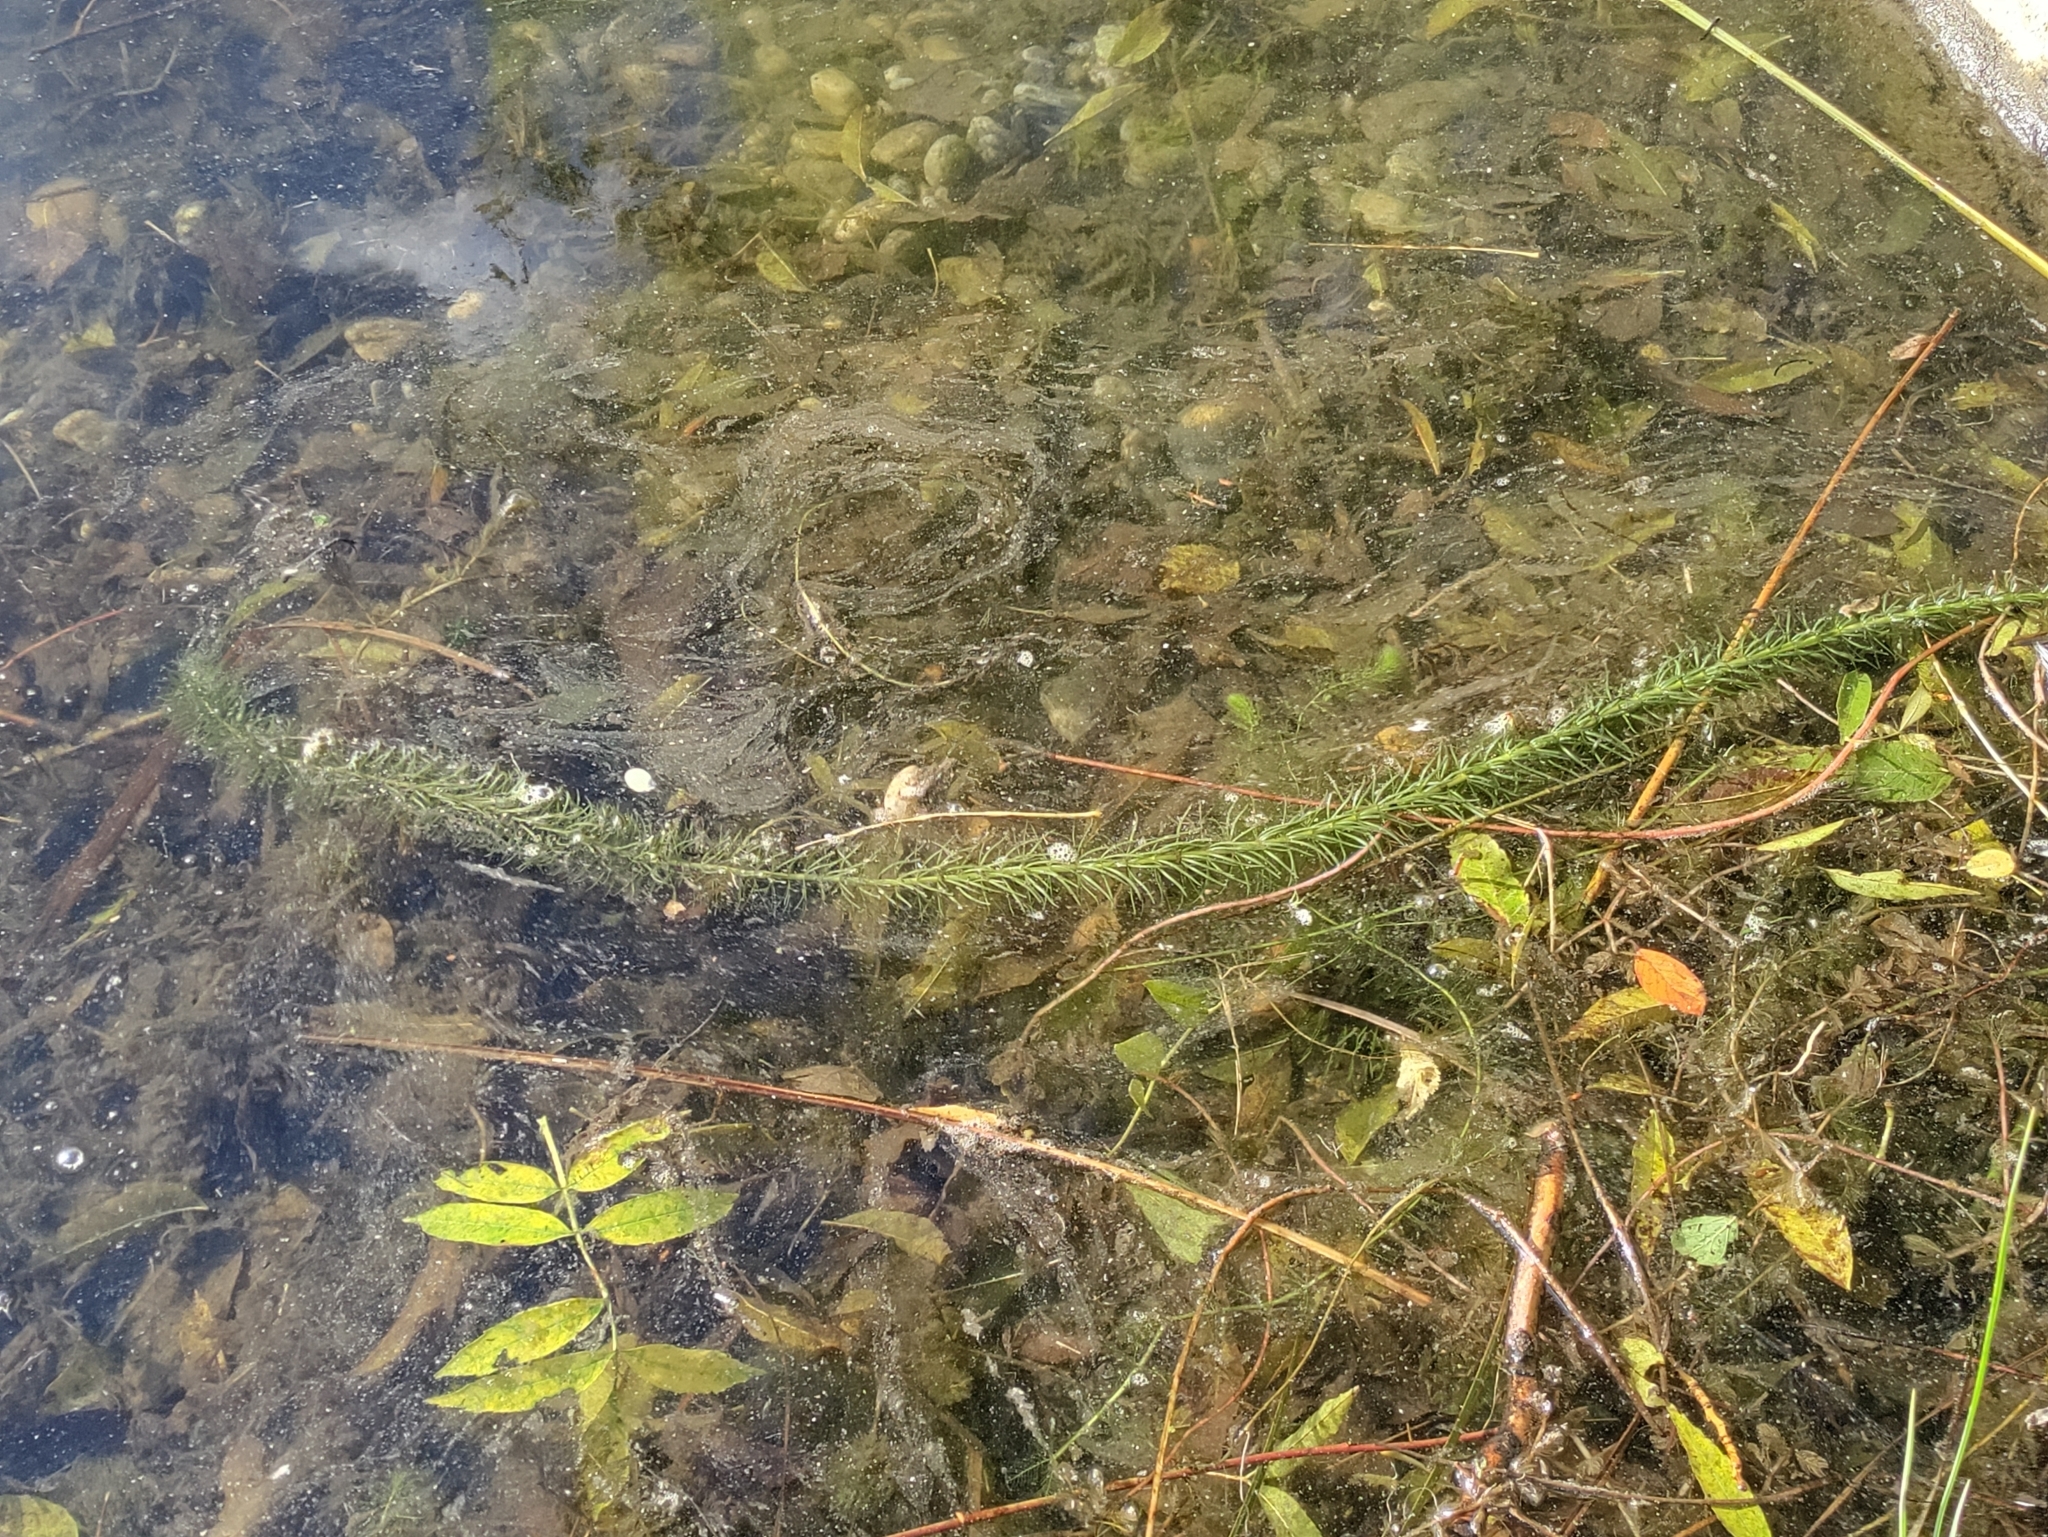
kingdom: Plantae
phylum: Tracheophyta
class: Magnoliopsida
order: Lamiales
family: Plantaginaceae
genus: Hippuris
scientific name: Hippuris vulgaris
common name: Mare's-tail
